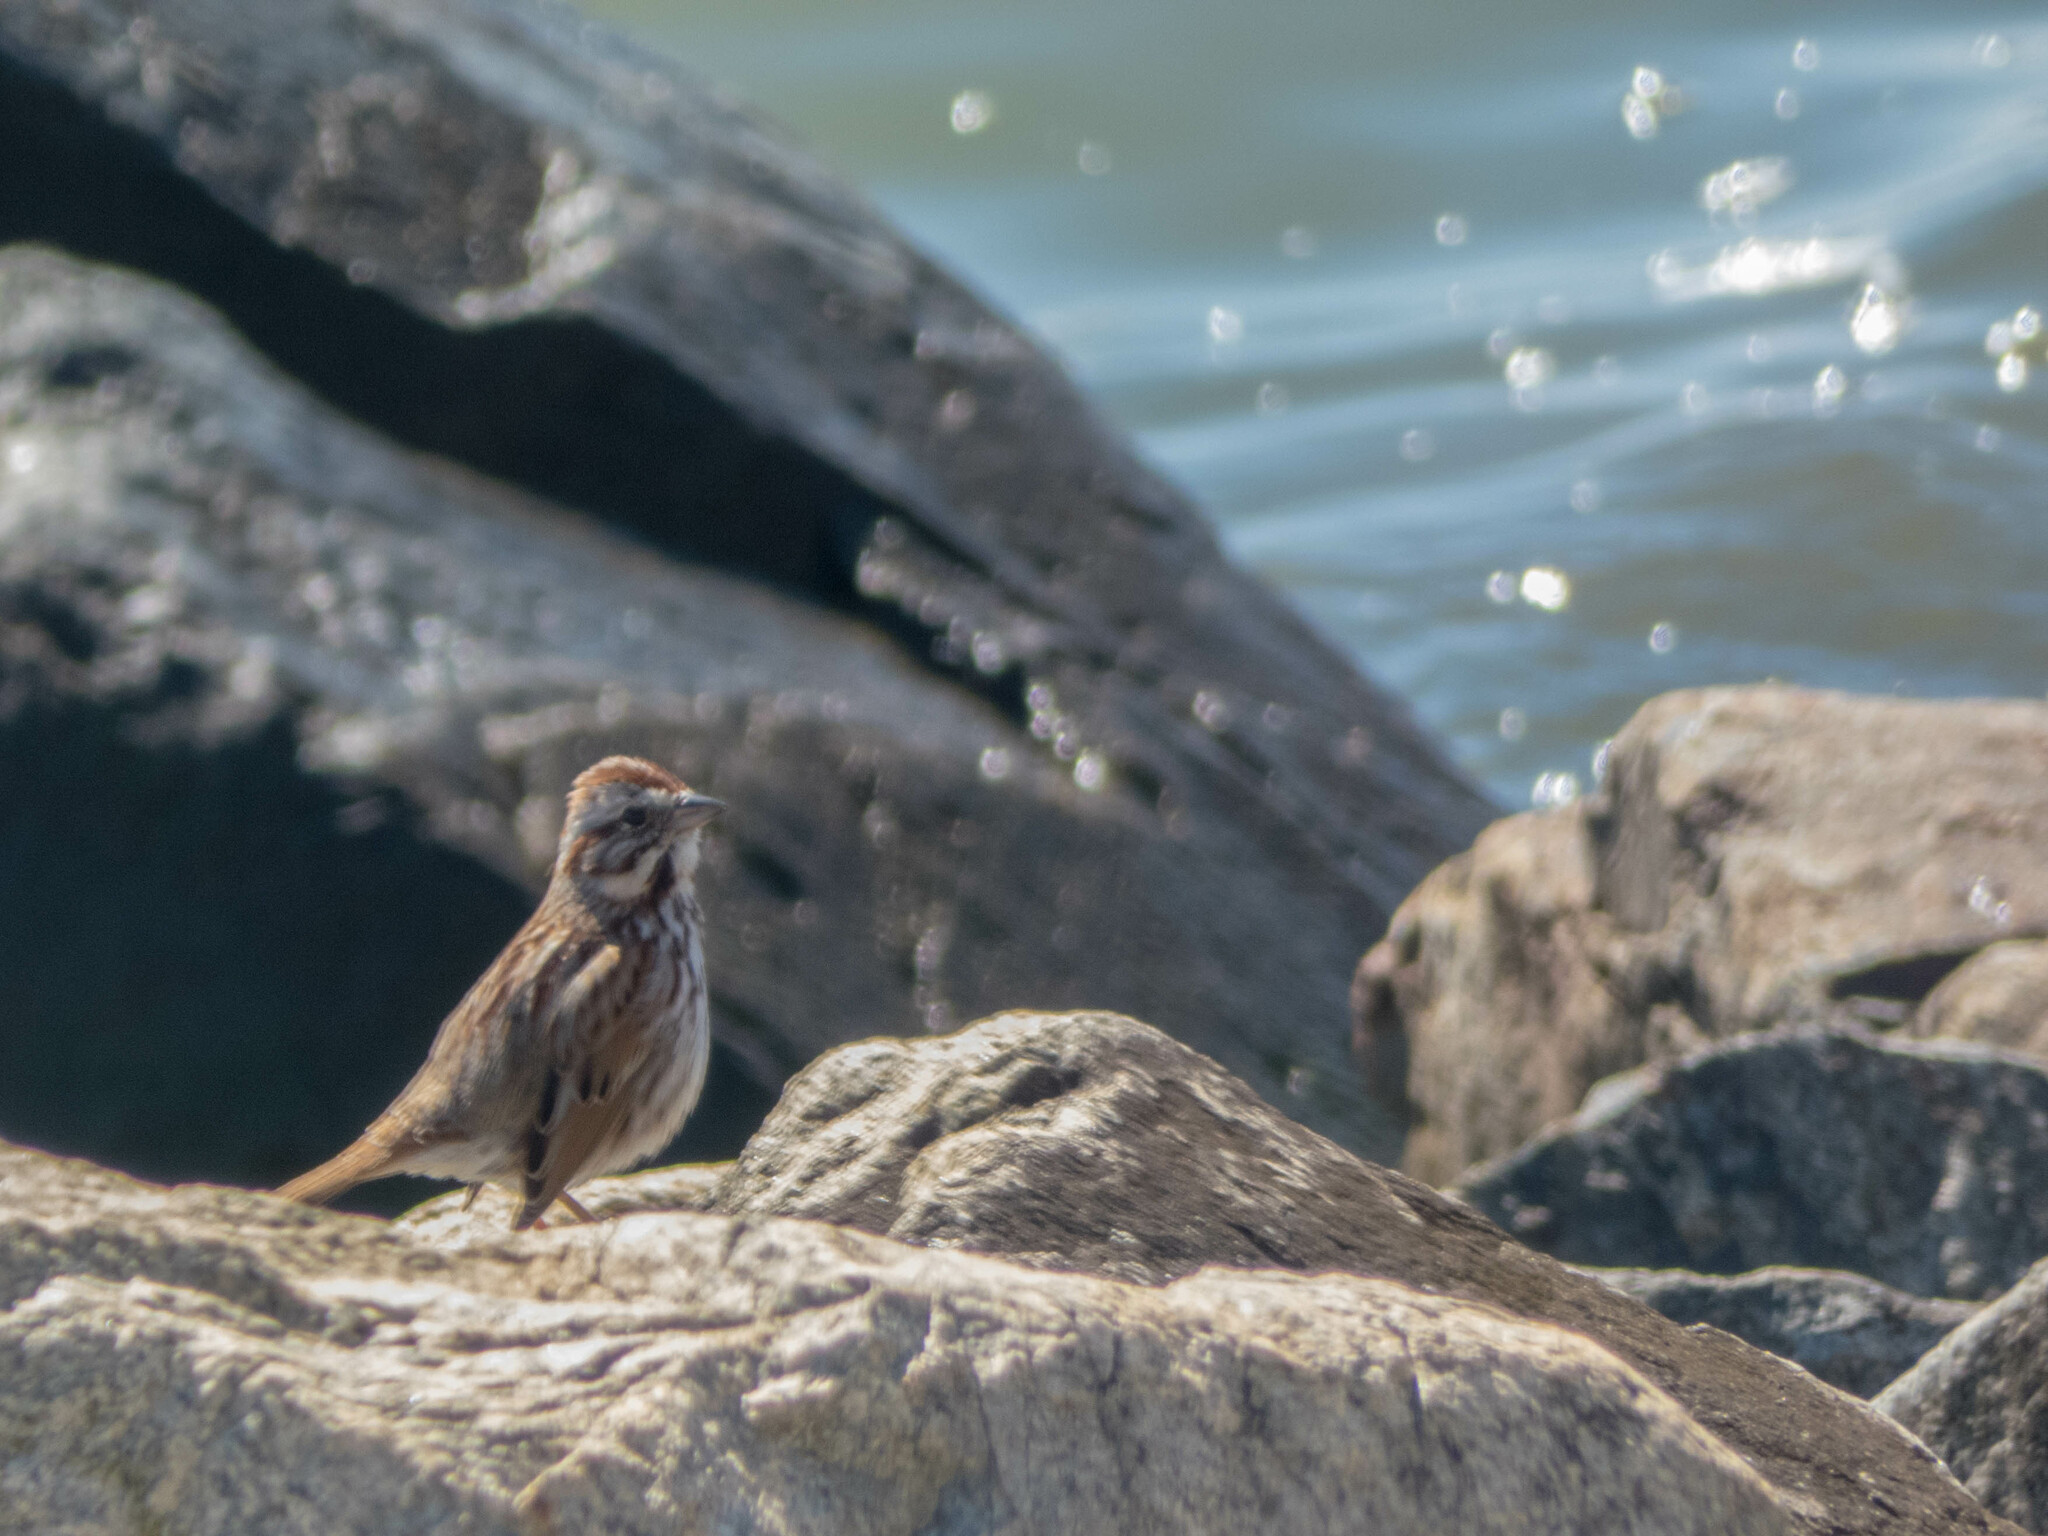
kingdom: Animalia
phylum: Chordata
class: Aves
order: Passeriformes
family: Passerellidae
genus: Melospiza
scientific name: Melospiza melodia
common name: Song sparrow
